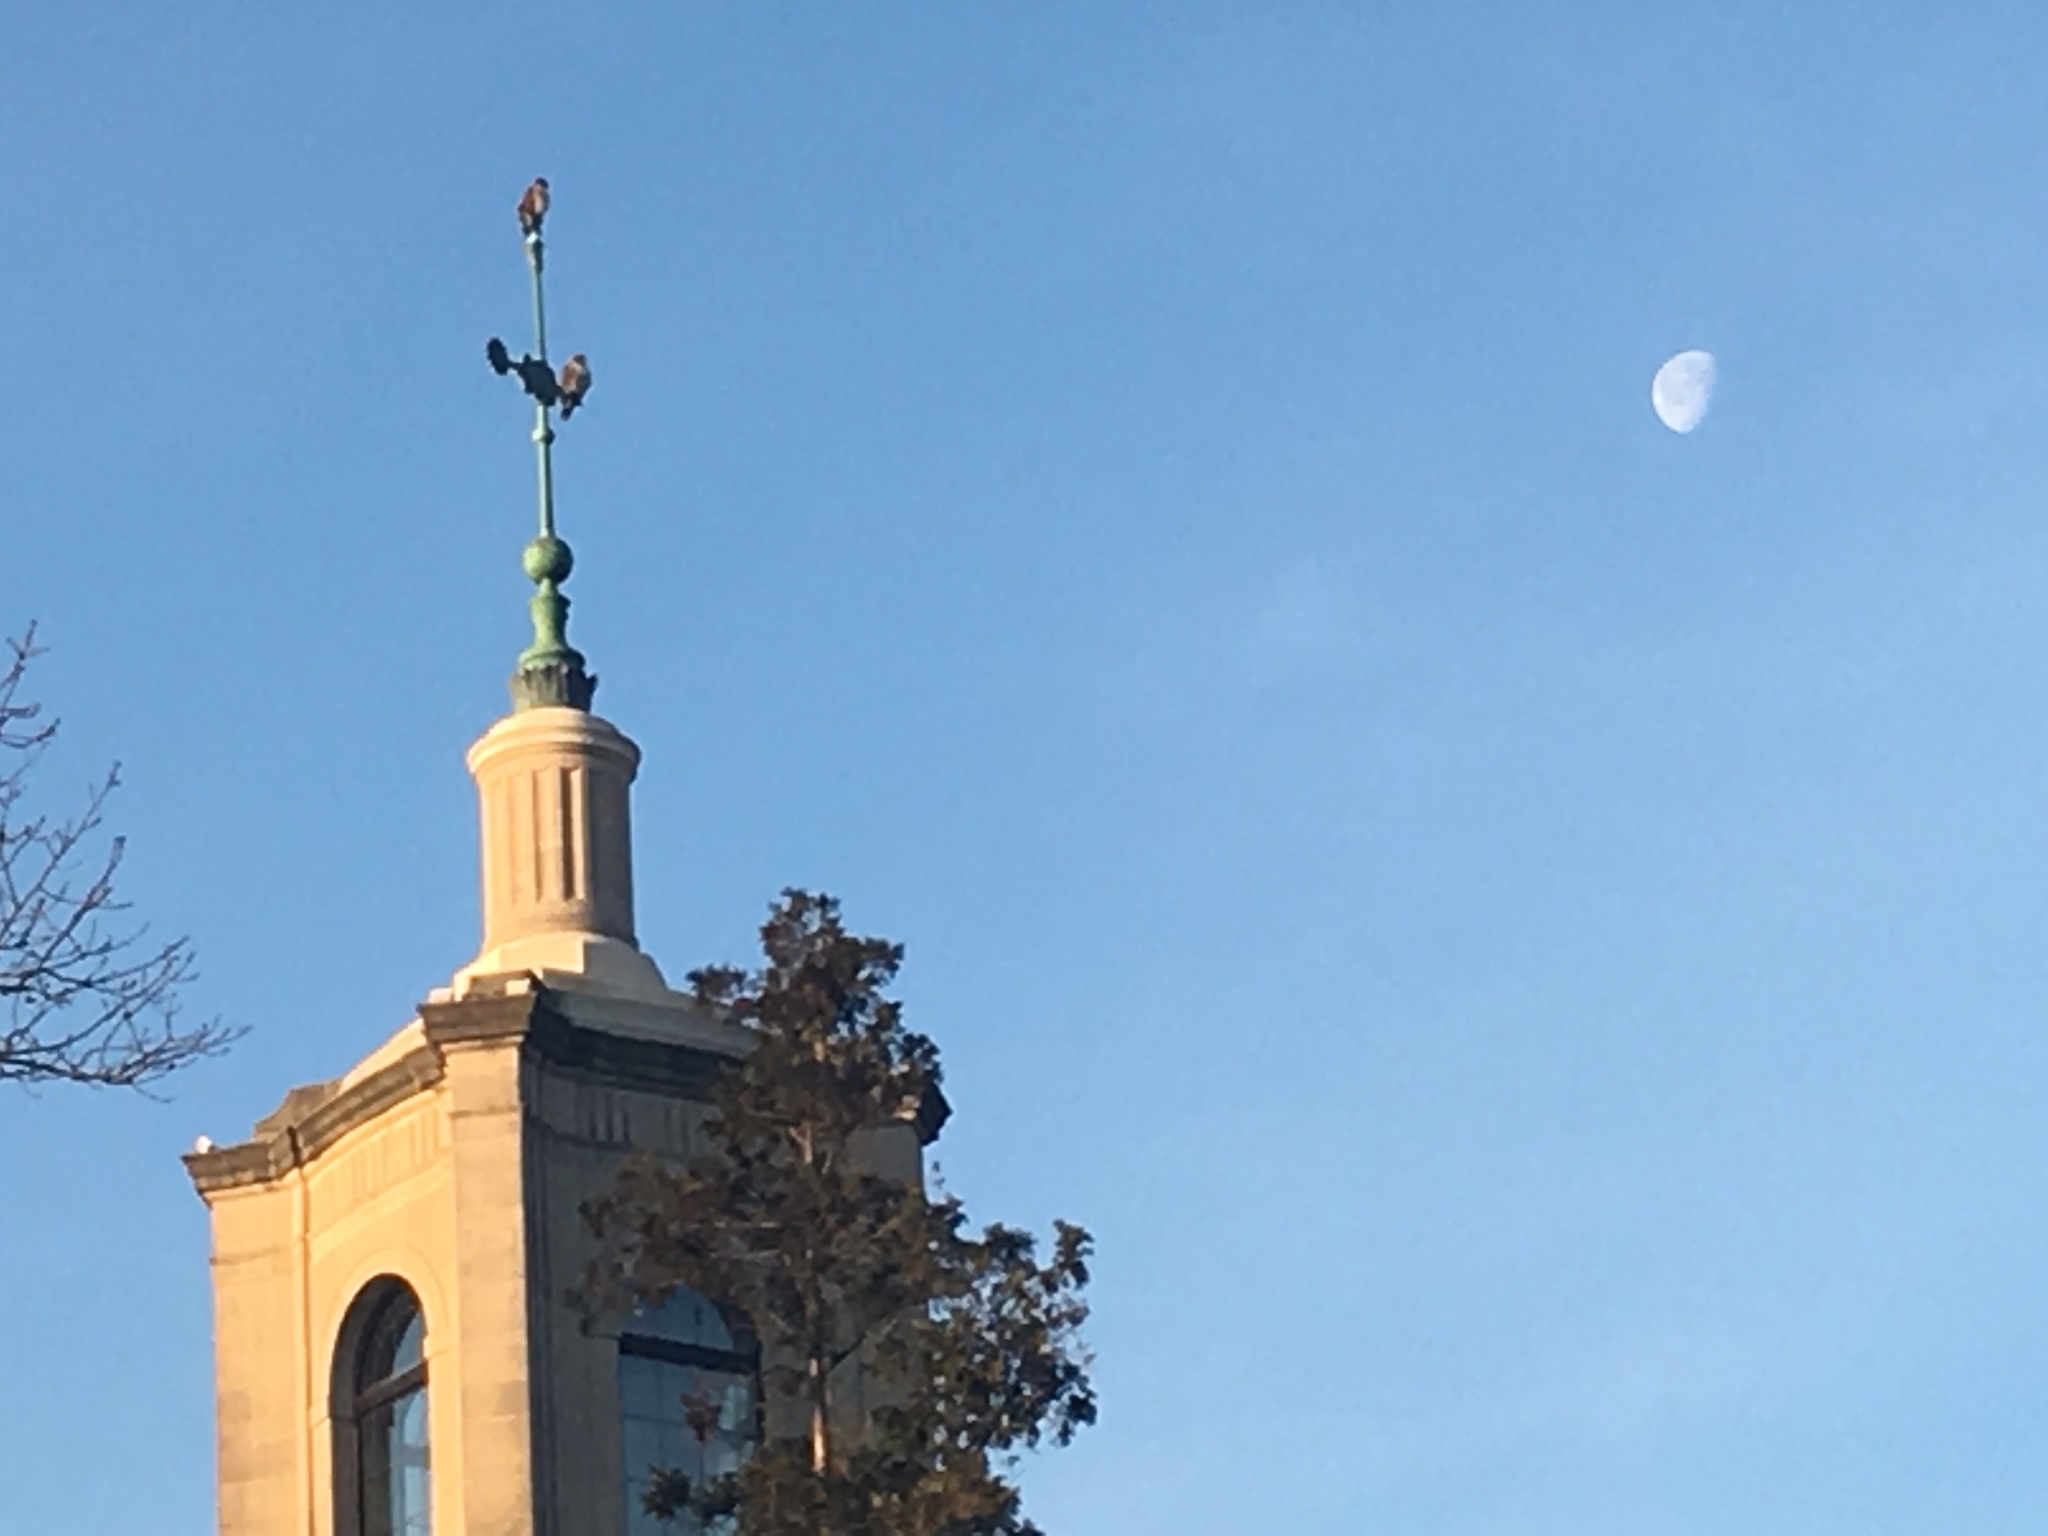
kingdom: Animalia
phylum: Chordata
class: Aves
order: Accipitriformes
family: Accipitridae
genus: Buteo
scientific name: Buteo jamaicensis
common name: Red-tailed hawk
